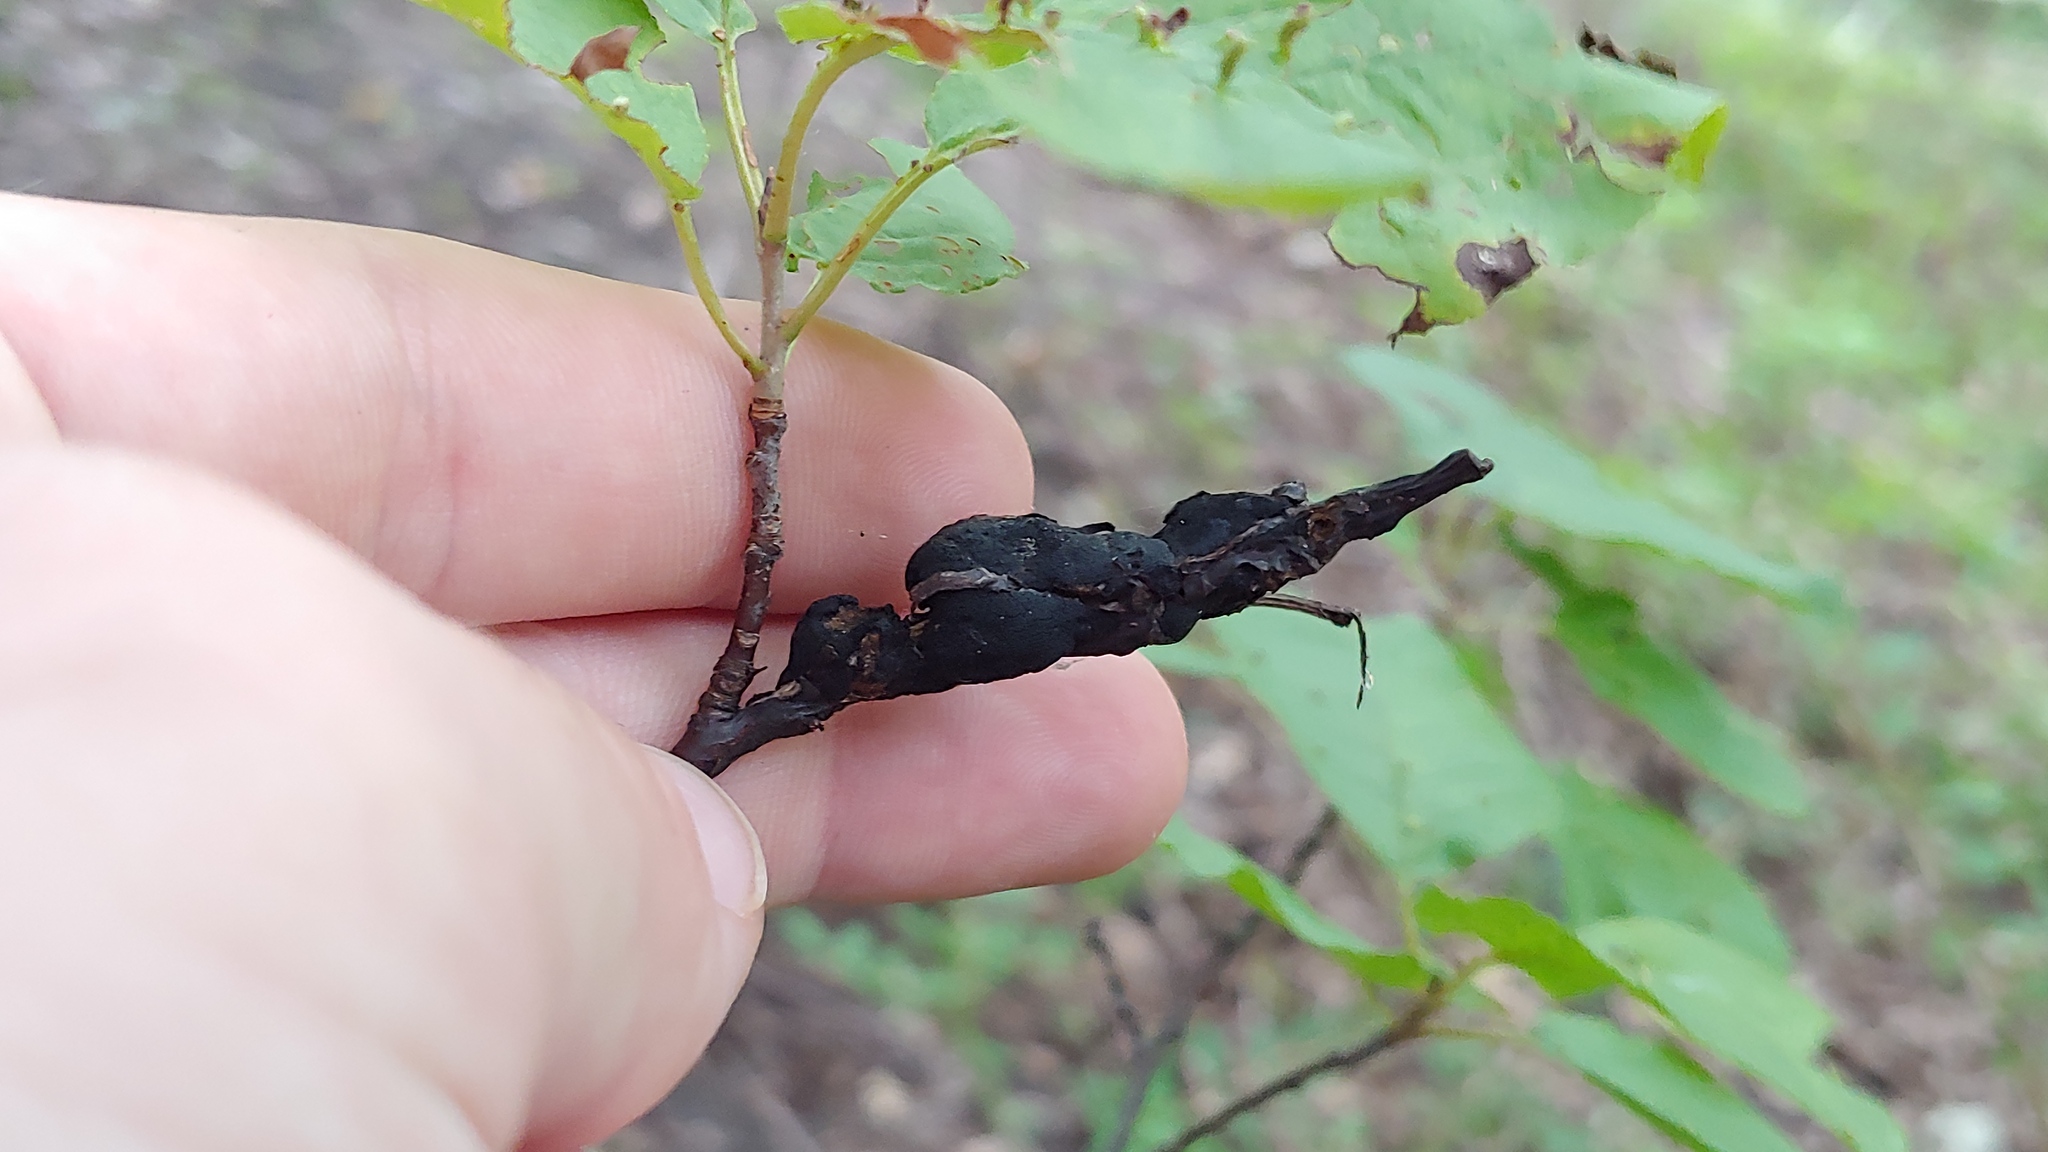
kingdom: Fungi
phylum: Ascomycota
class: Dothideomycetes
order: Venturiales
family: Venturiaceae
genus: Apiosporina
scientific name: Apiosporina morbosa
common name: Black knot
